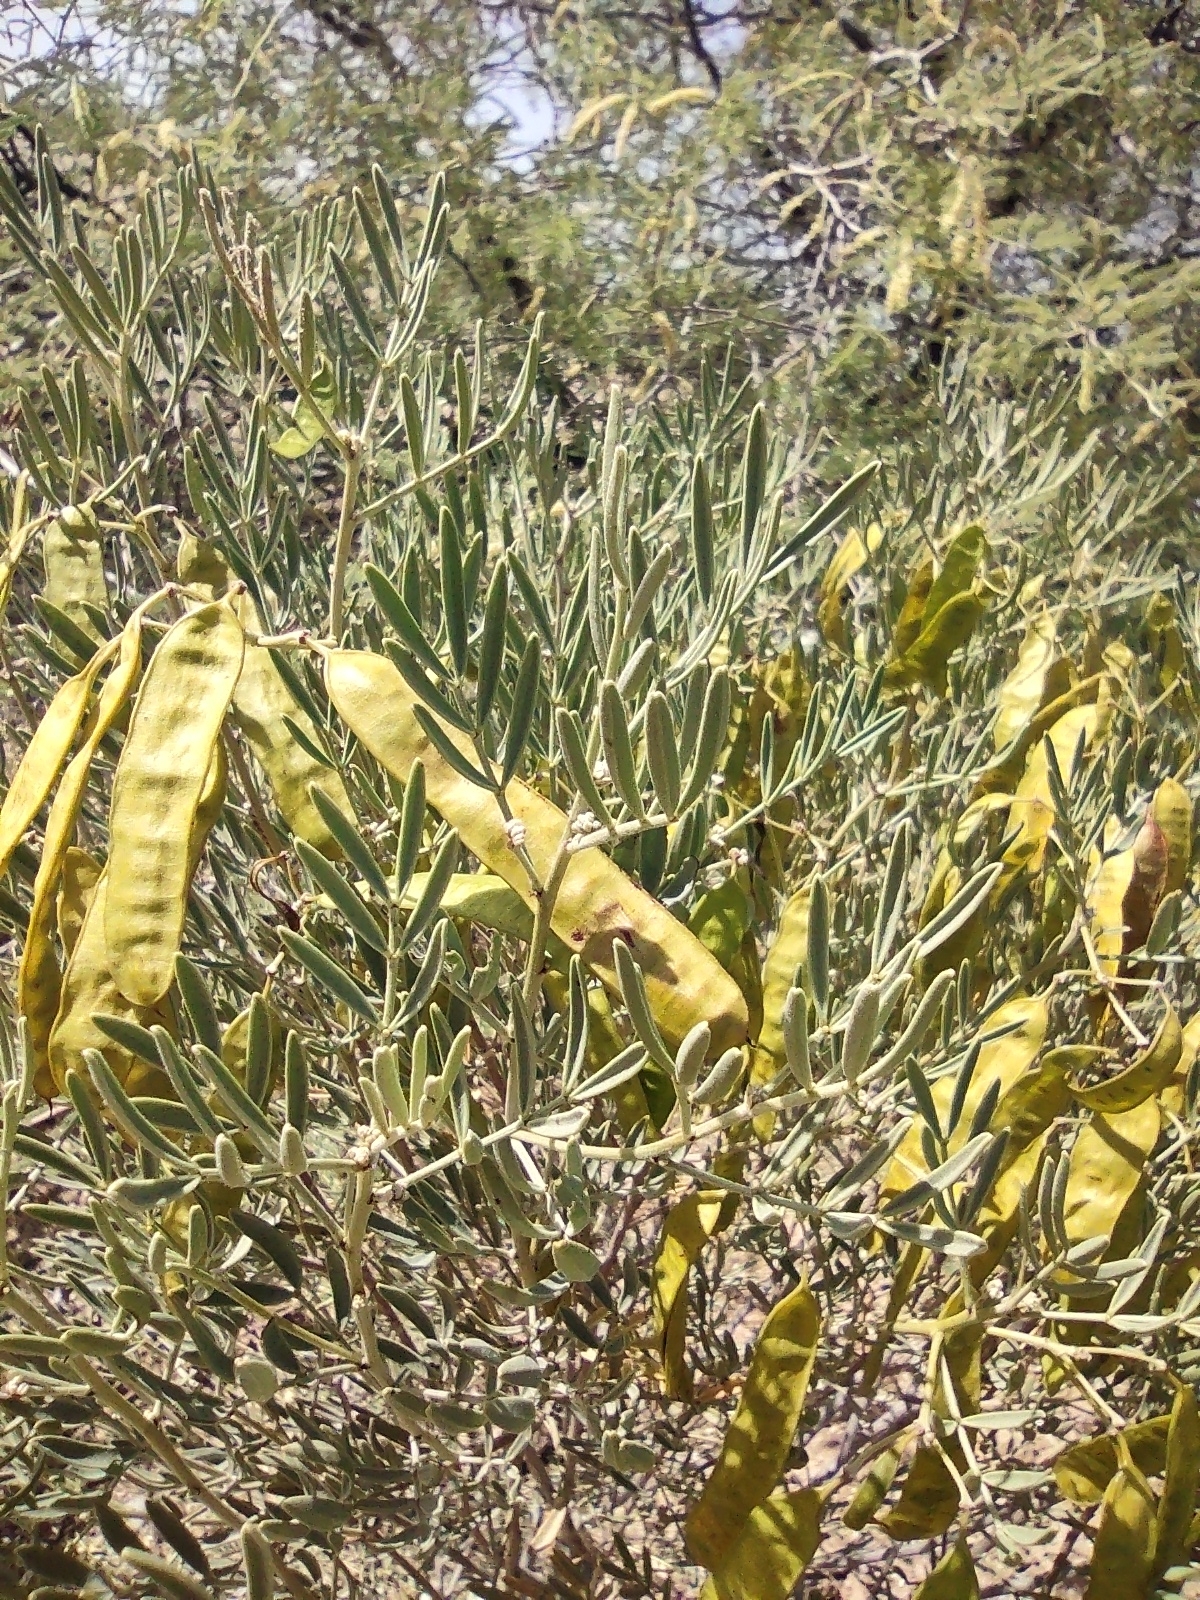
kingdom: Plantae
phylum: Tracheophyta
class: Magnoliopsida
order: Fabales
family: Fabaceae
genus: Senna
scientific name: Senna artemisioides
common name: Burnt-leaved acacia
